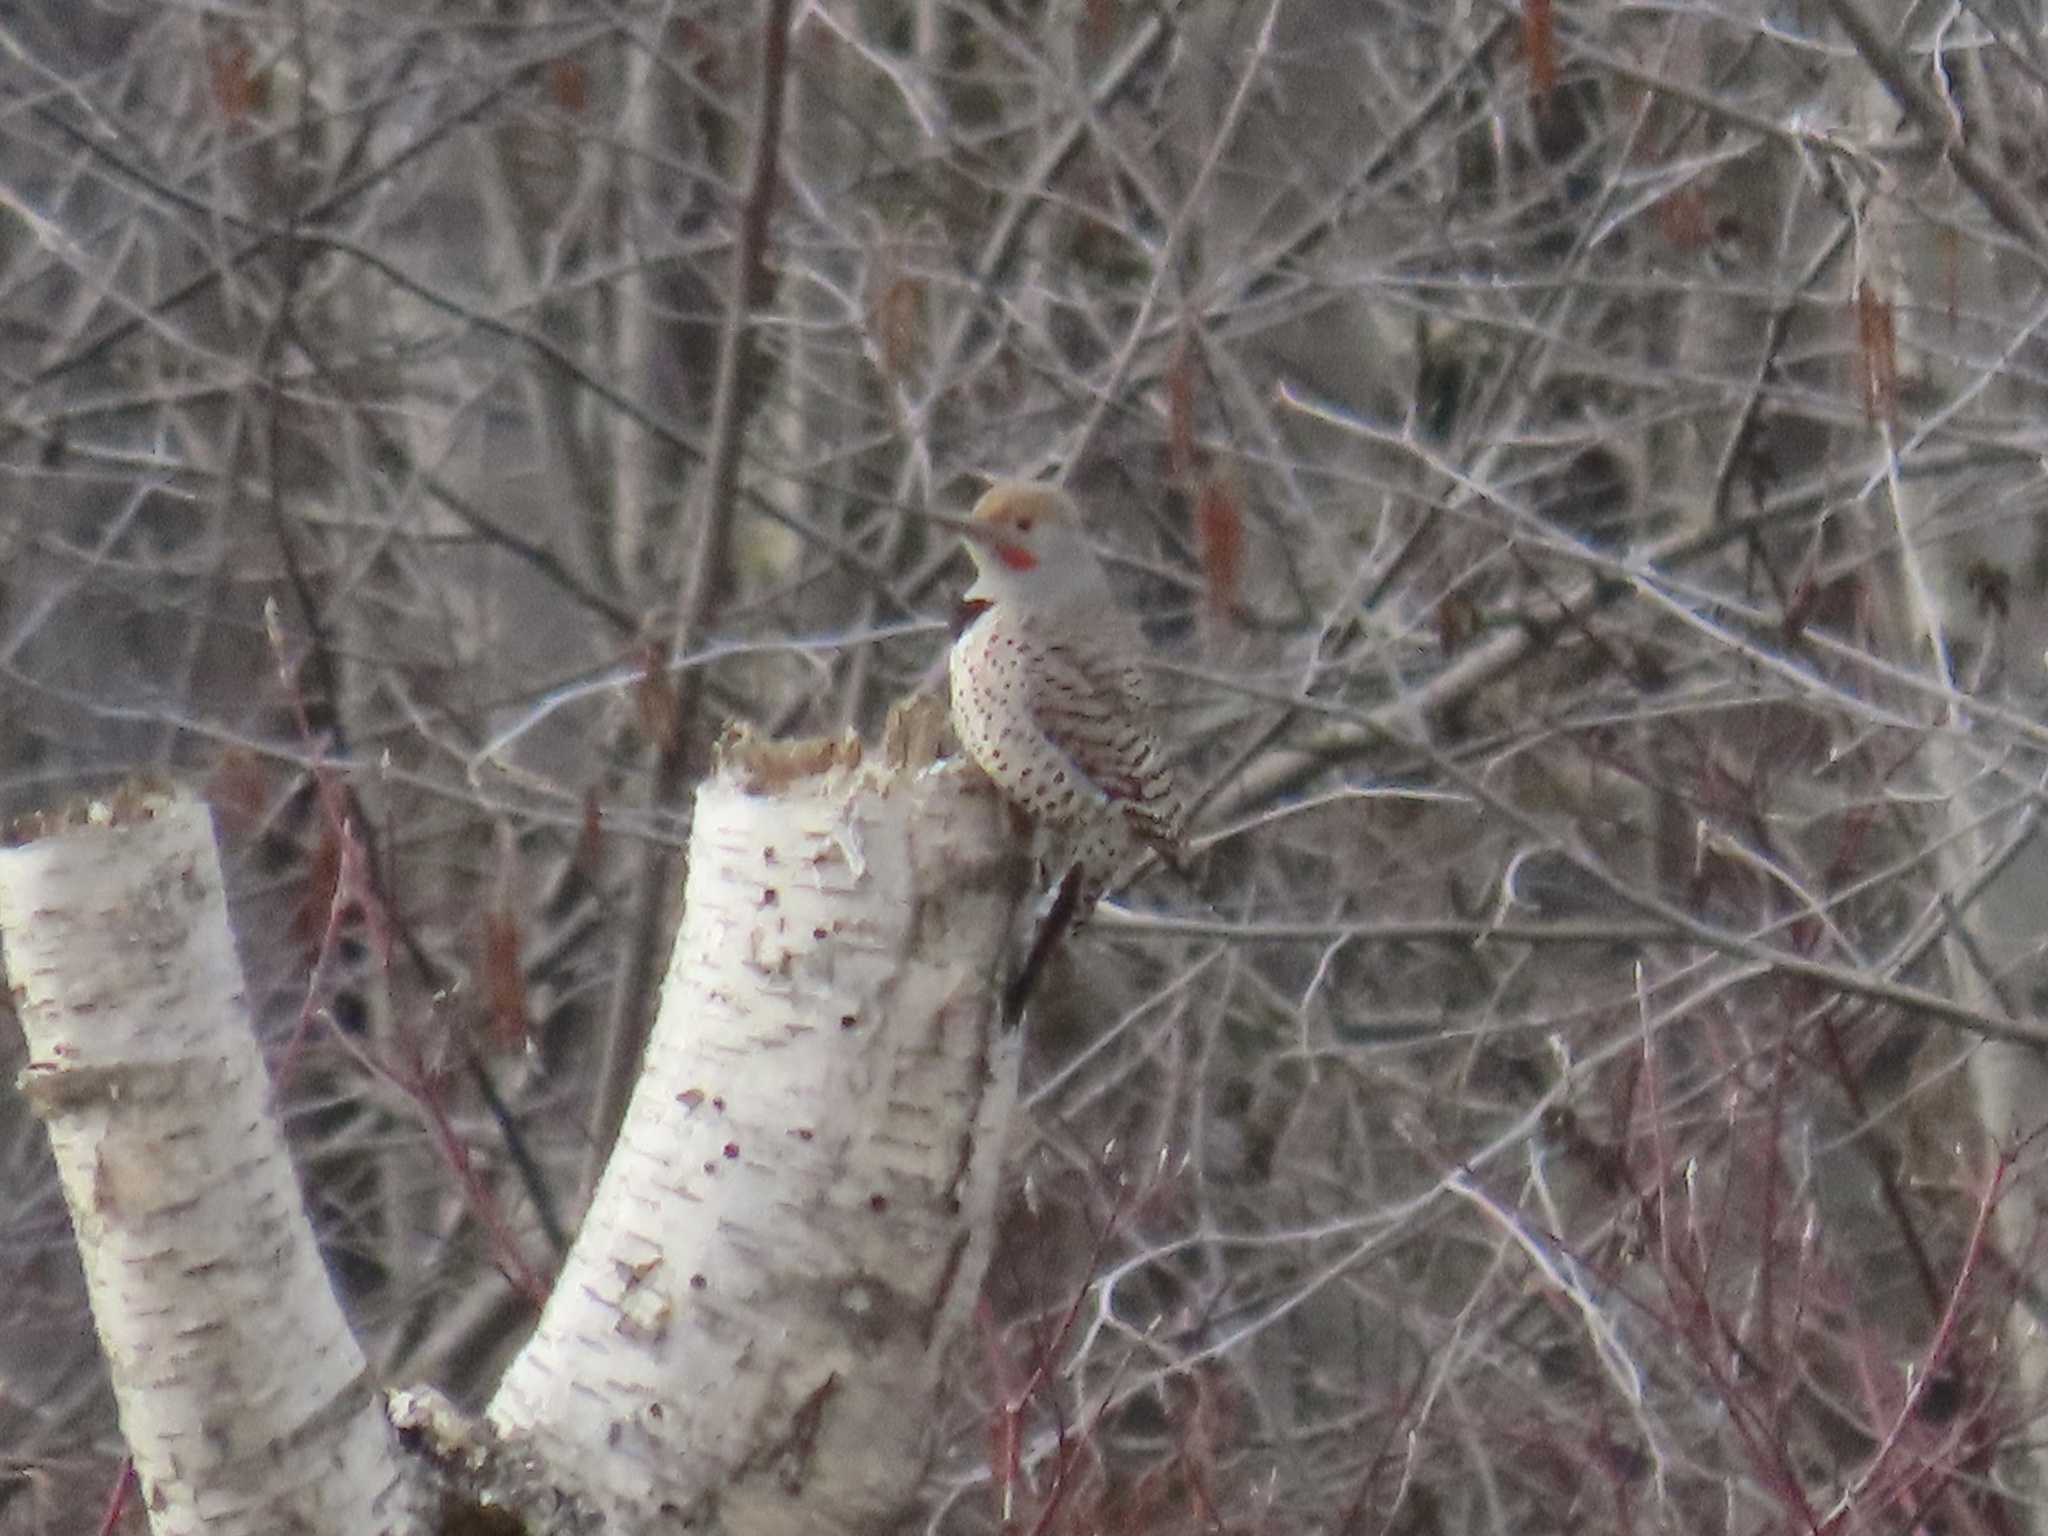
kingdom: Animalia
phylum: Chordata
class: Aves
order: Piciformes
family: Picidae
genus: Colaptes
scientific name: Colaptes auratus
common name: Northern flicker
